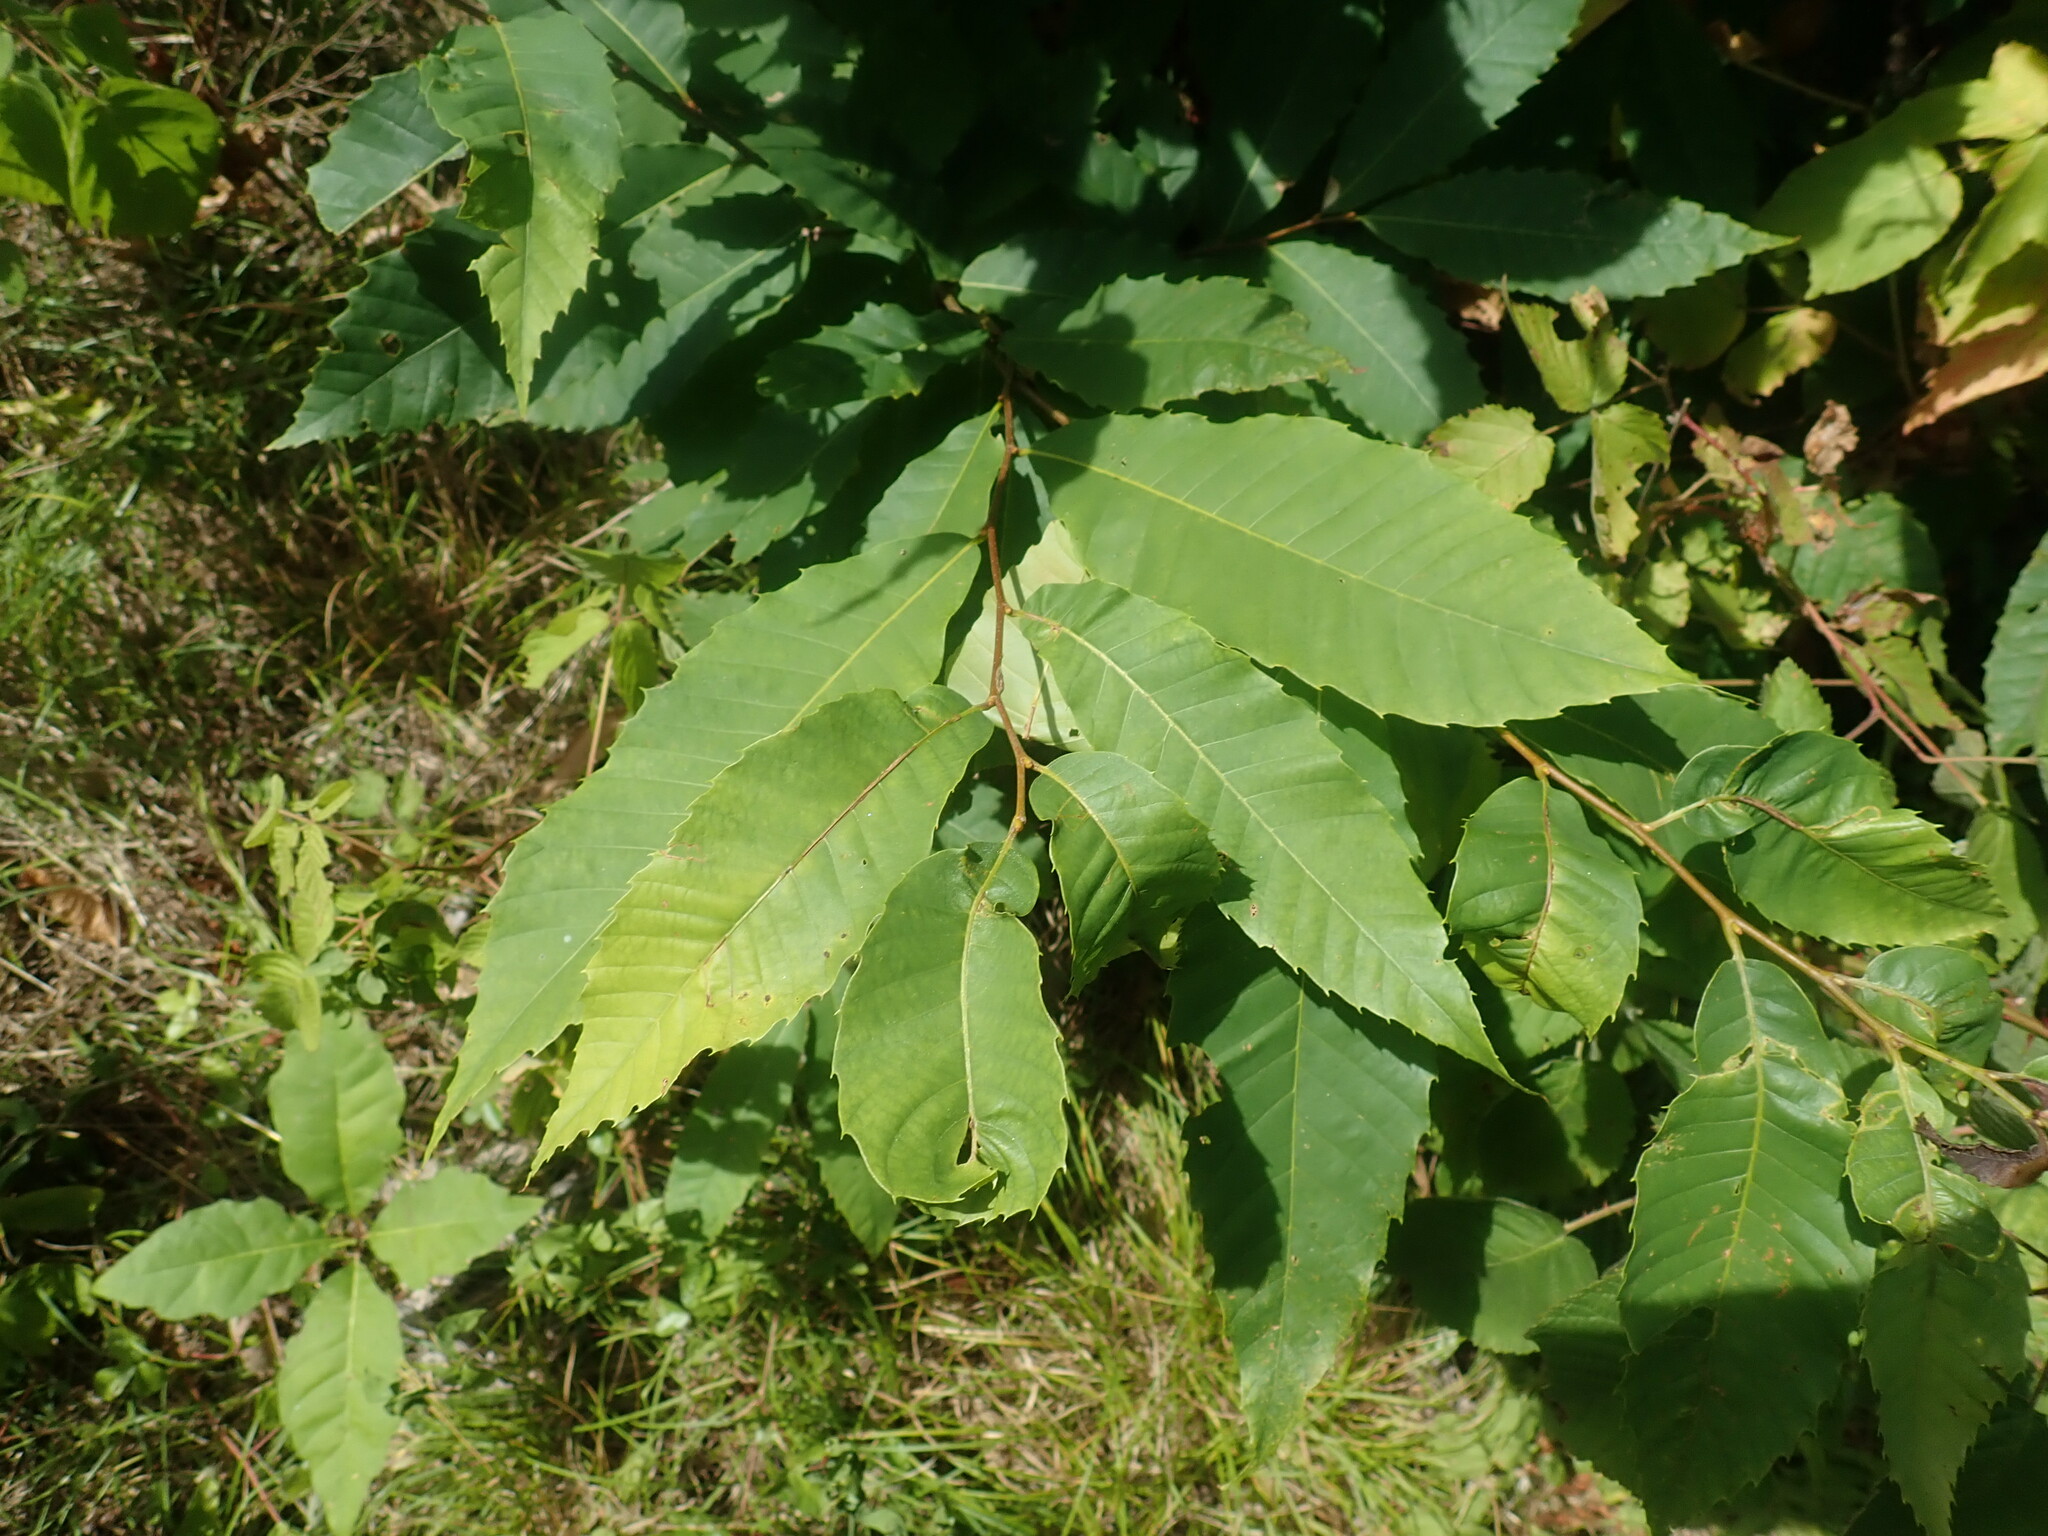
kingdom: Plantae
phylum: Tracheophyta
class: Magnoliopsida
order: Fagales
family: Fagaceae
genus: Castanea
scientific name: Castanea dentata
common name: American chestnut
